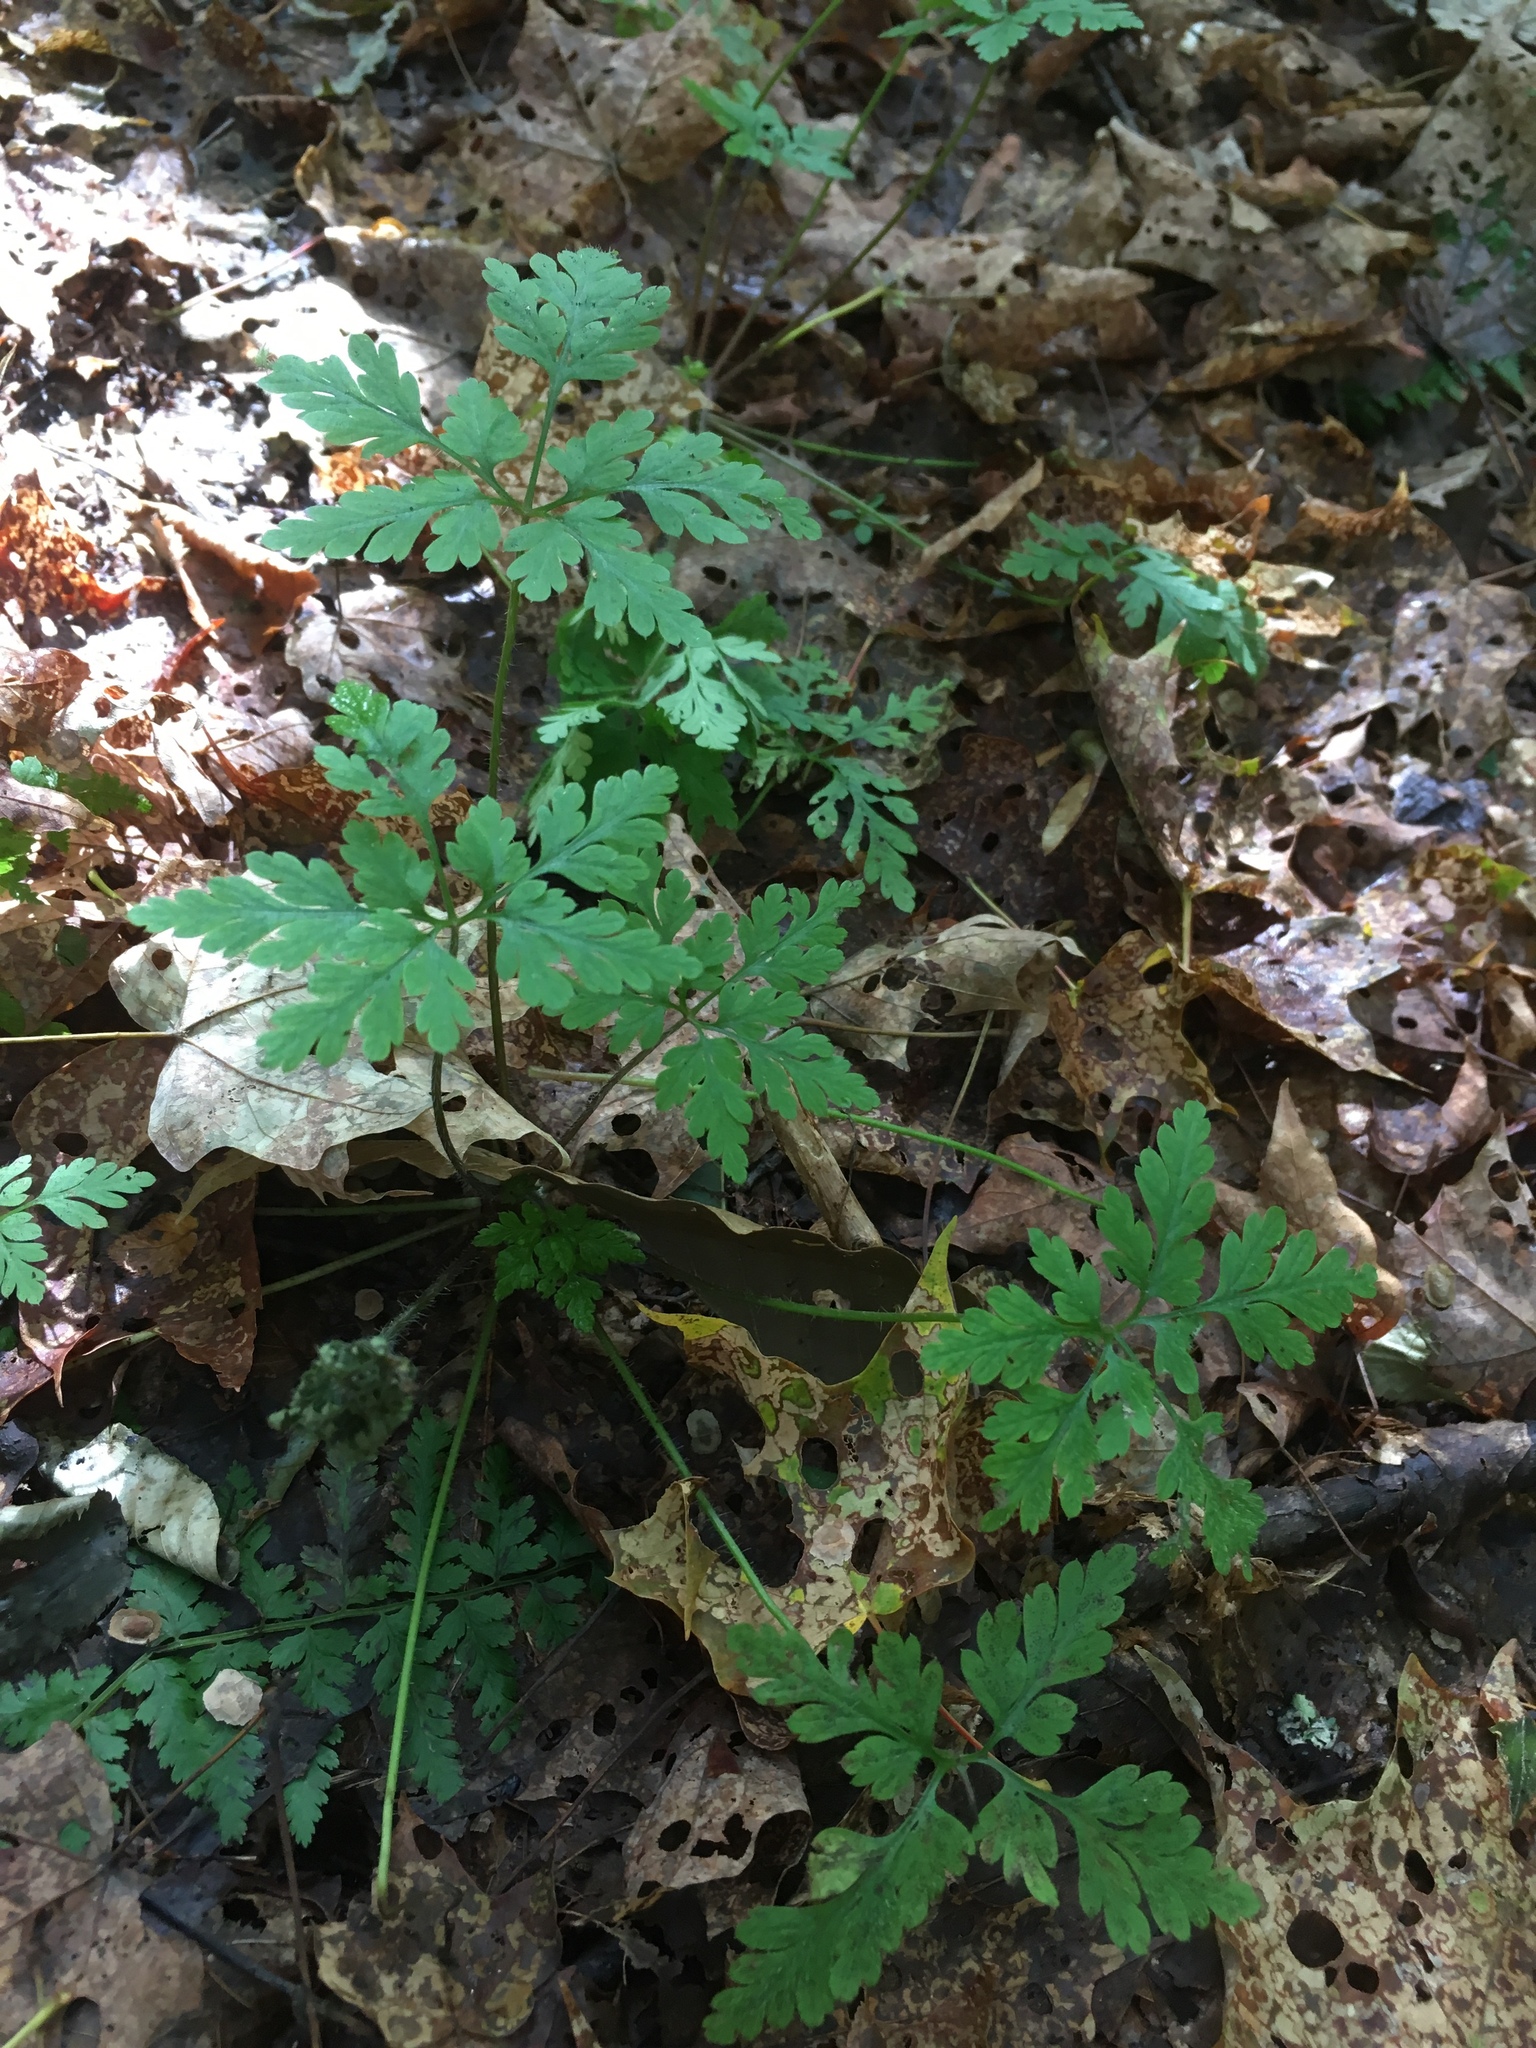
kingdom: Plantae
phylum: Tracheophyta
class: Magnoliopsida
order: Geraniales
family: Geraniaceae
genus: Geranium
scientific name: Geranium robertianum
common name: Herb-robert
